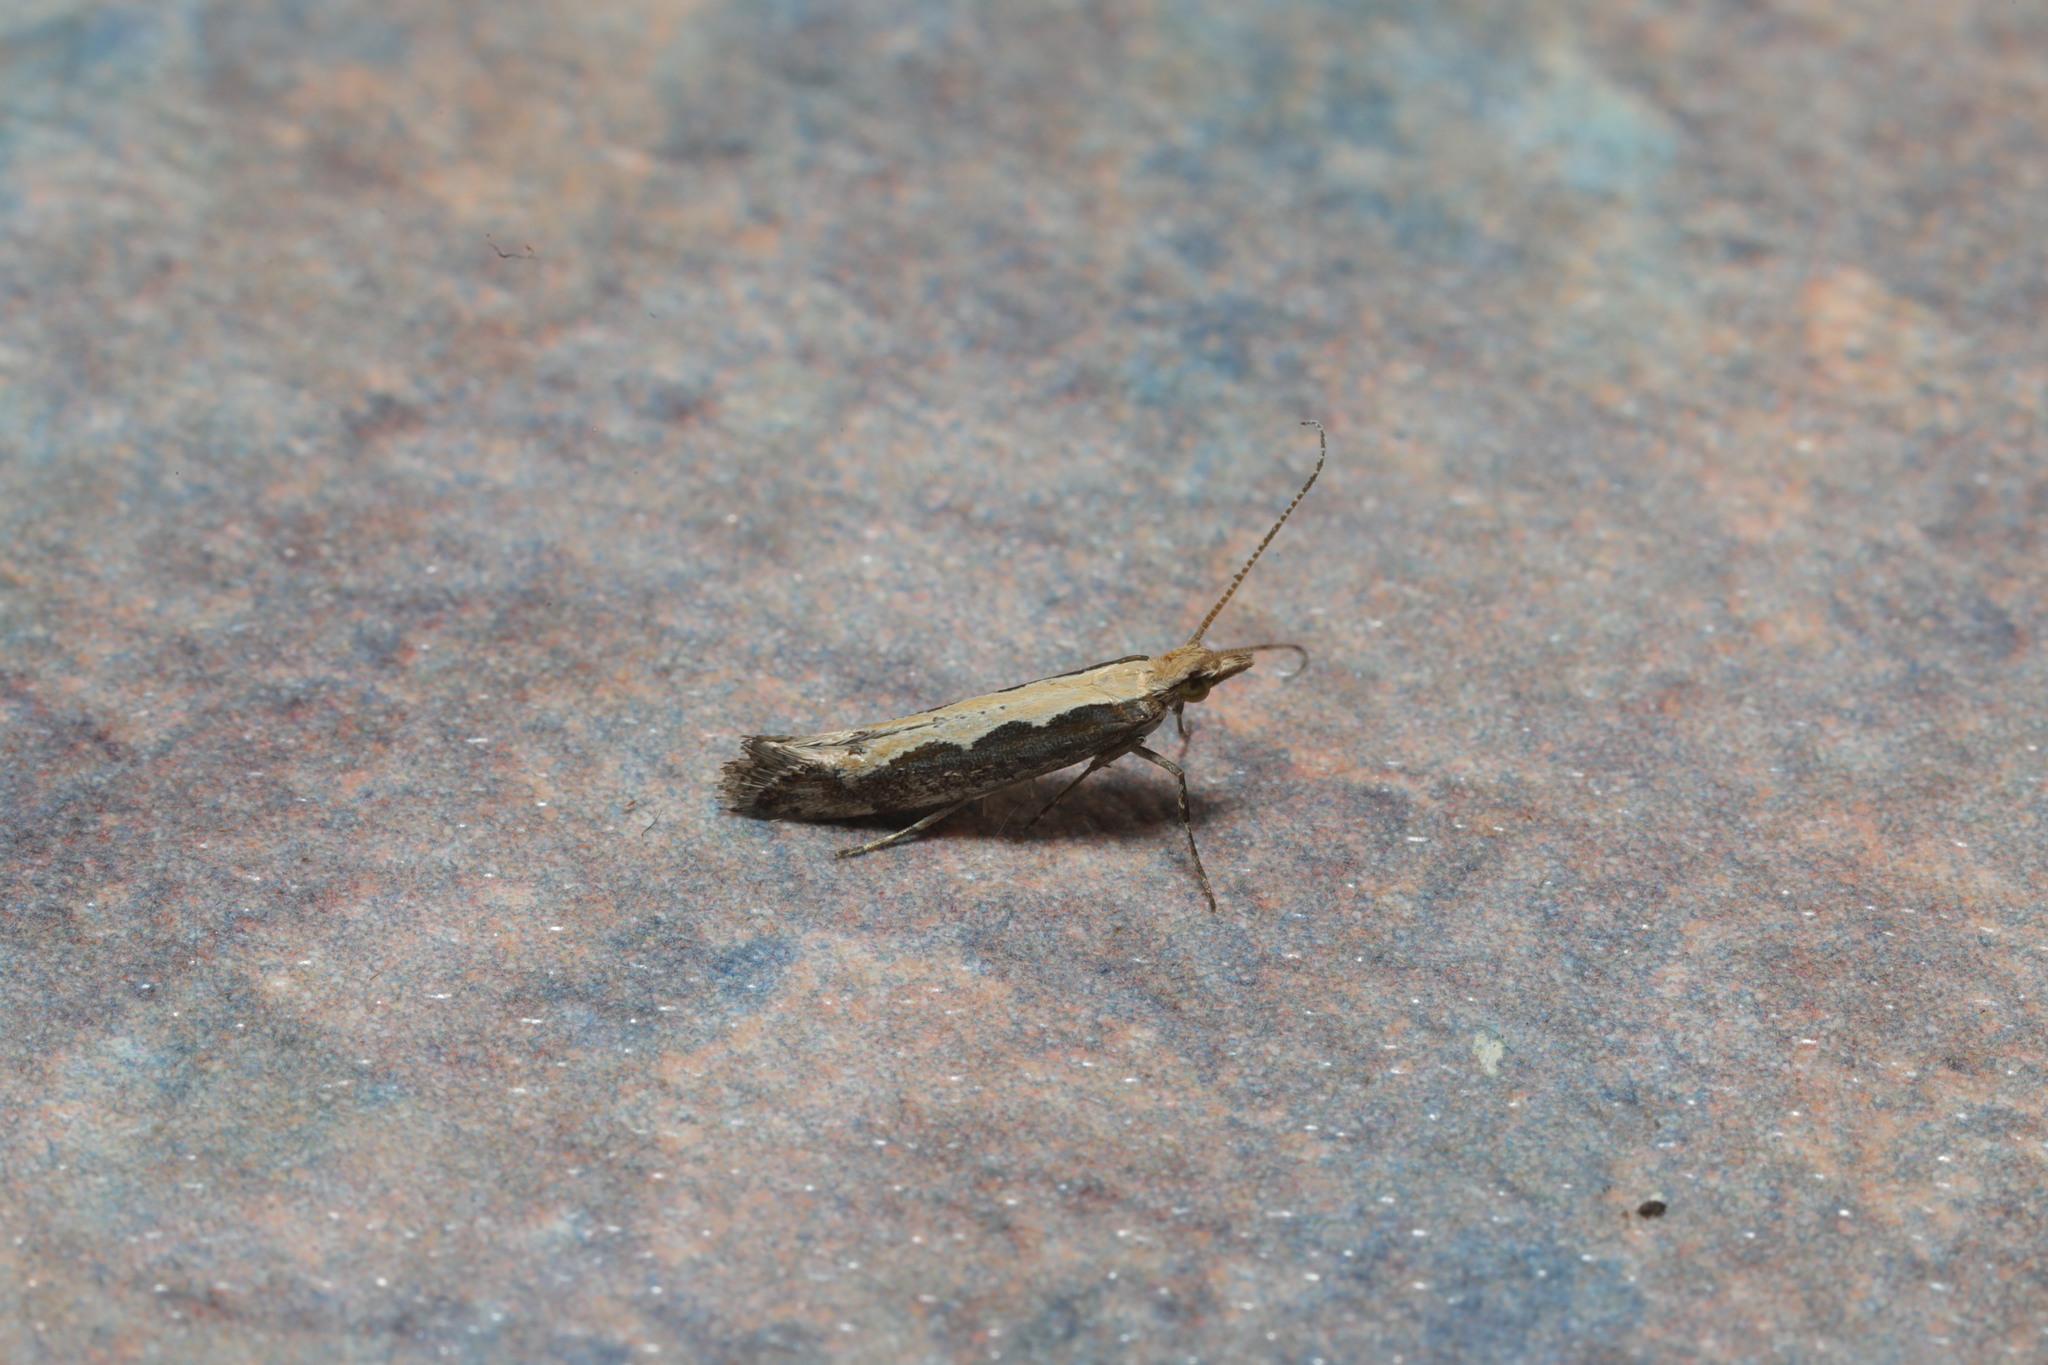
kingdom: Animalia
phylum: Arthropoda
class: Insecta
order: Lepidoptera
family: Plutellidae
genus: Plutella
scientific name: Plutella xylostella
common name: Diamond-back moth
